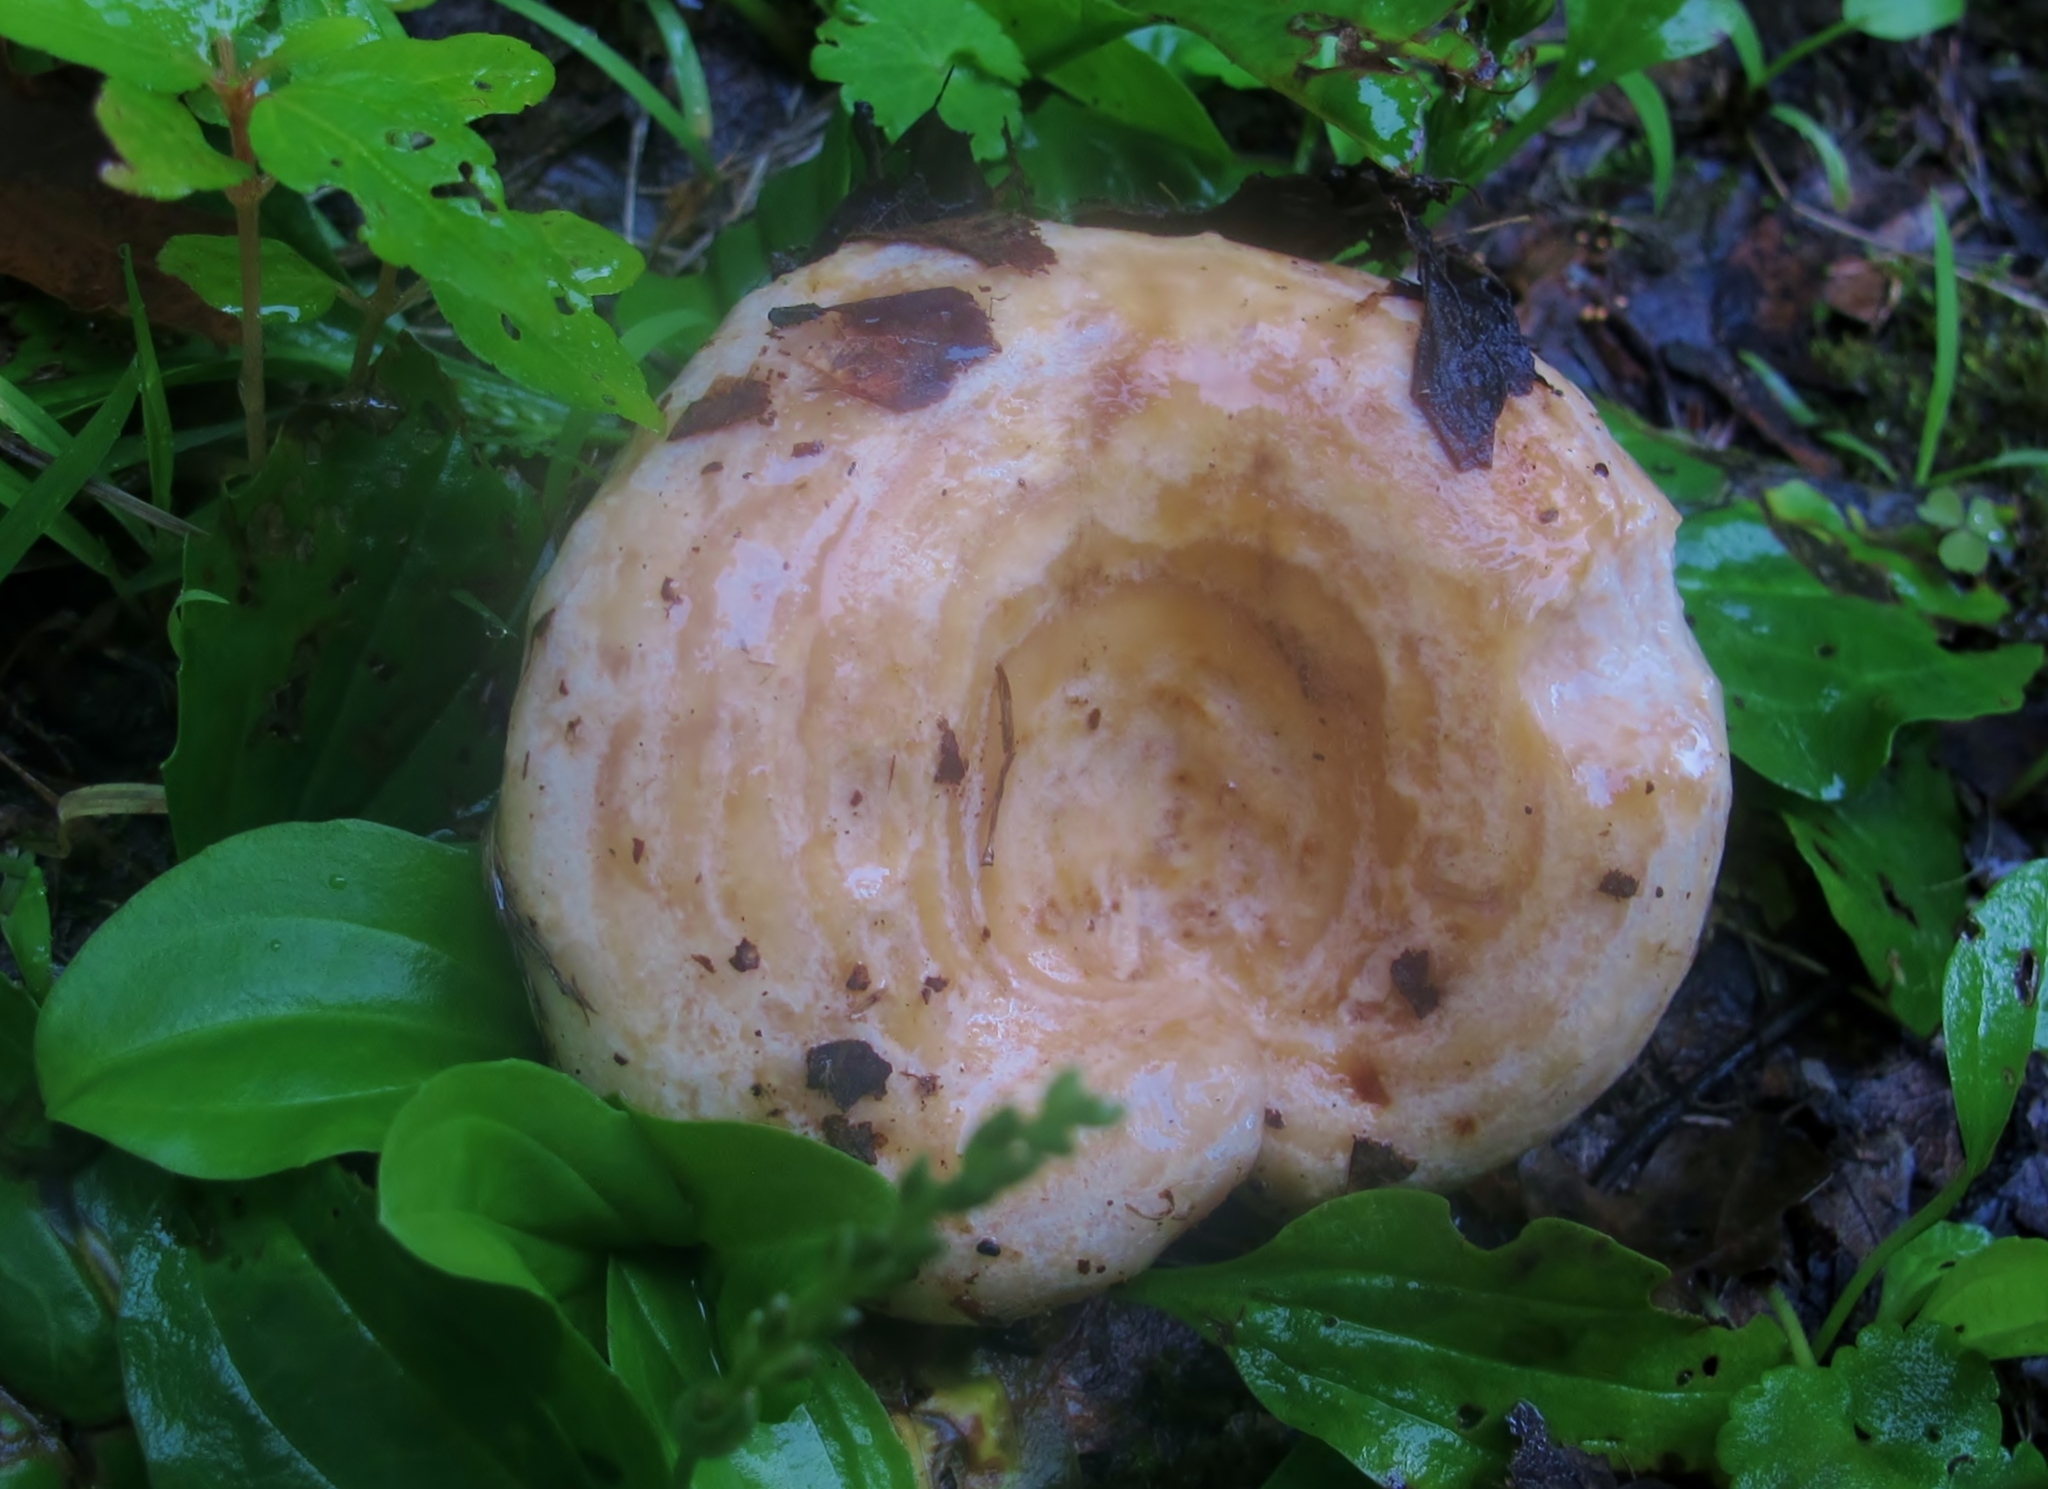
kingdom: Fungi
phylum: Basidiomycota
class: Agaricomycetes
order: Russulales
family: Russulaceae
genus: Lactarius
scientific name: Lactarius psammicola
